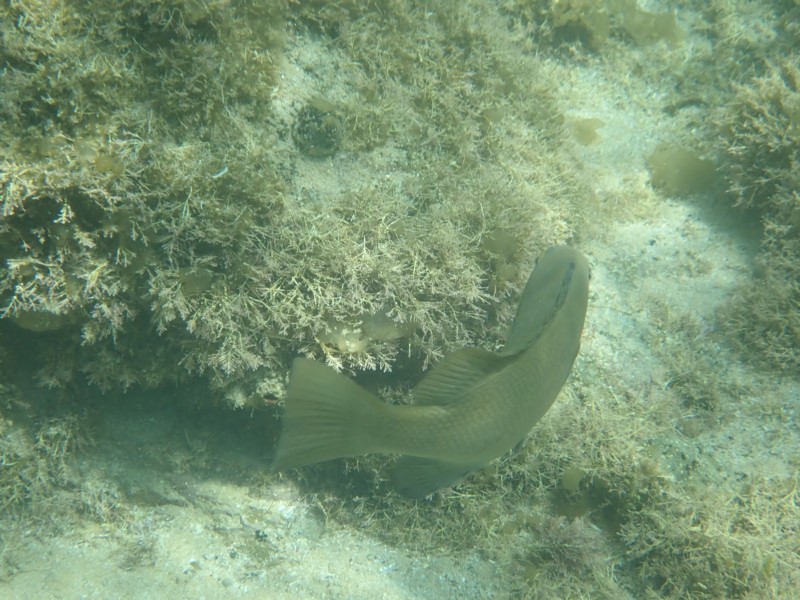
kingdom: Animalia
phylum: Chordata
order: Perciformes
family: Kyphosidae
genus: Girella
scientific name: Girella elevata
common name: Black bream
